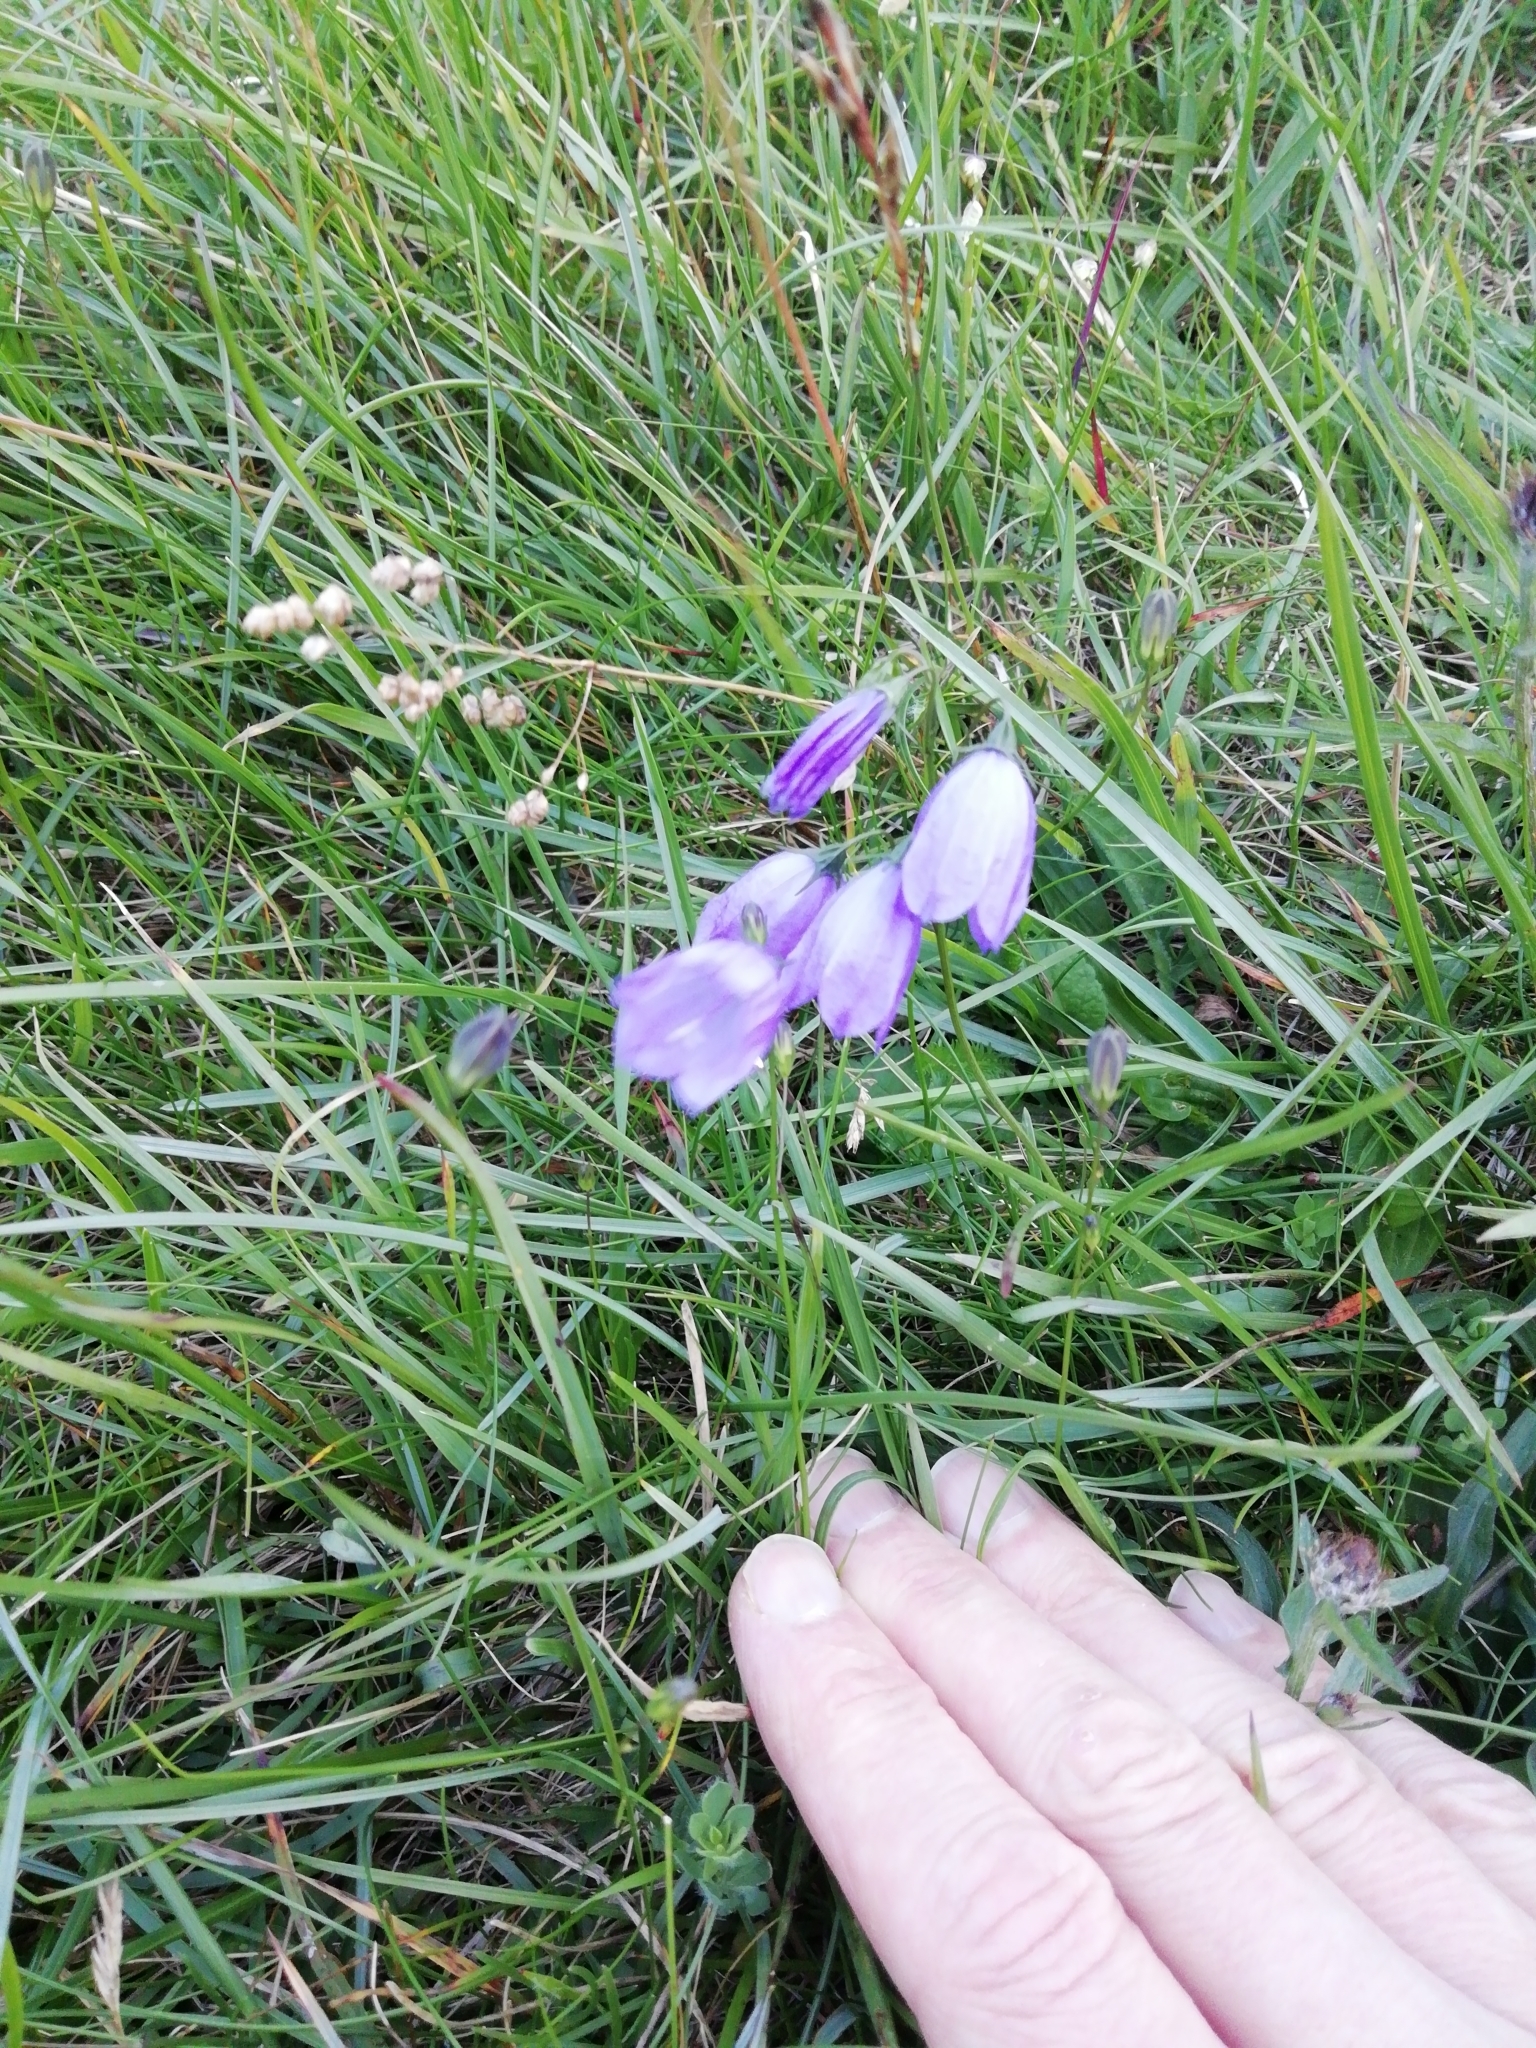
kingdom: Plantae
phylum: Tracheophyta
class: Magnoliopsida
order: Asterales
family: Campanulaceae
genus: Campanula
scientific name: Campanula rotundifolia
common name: Harebell
